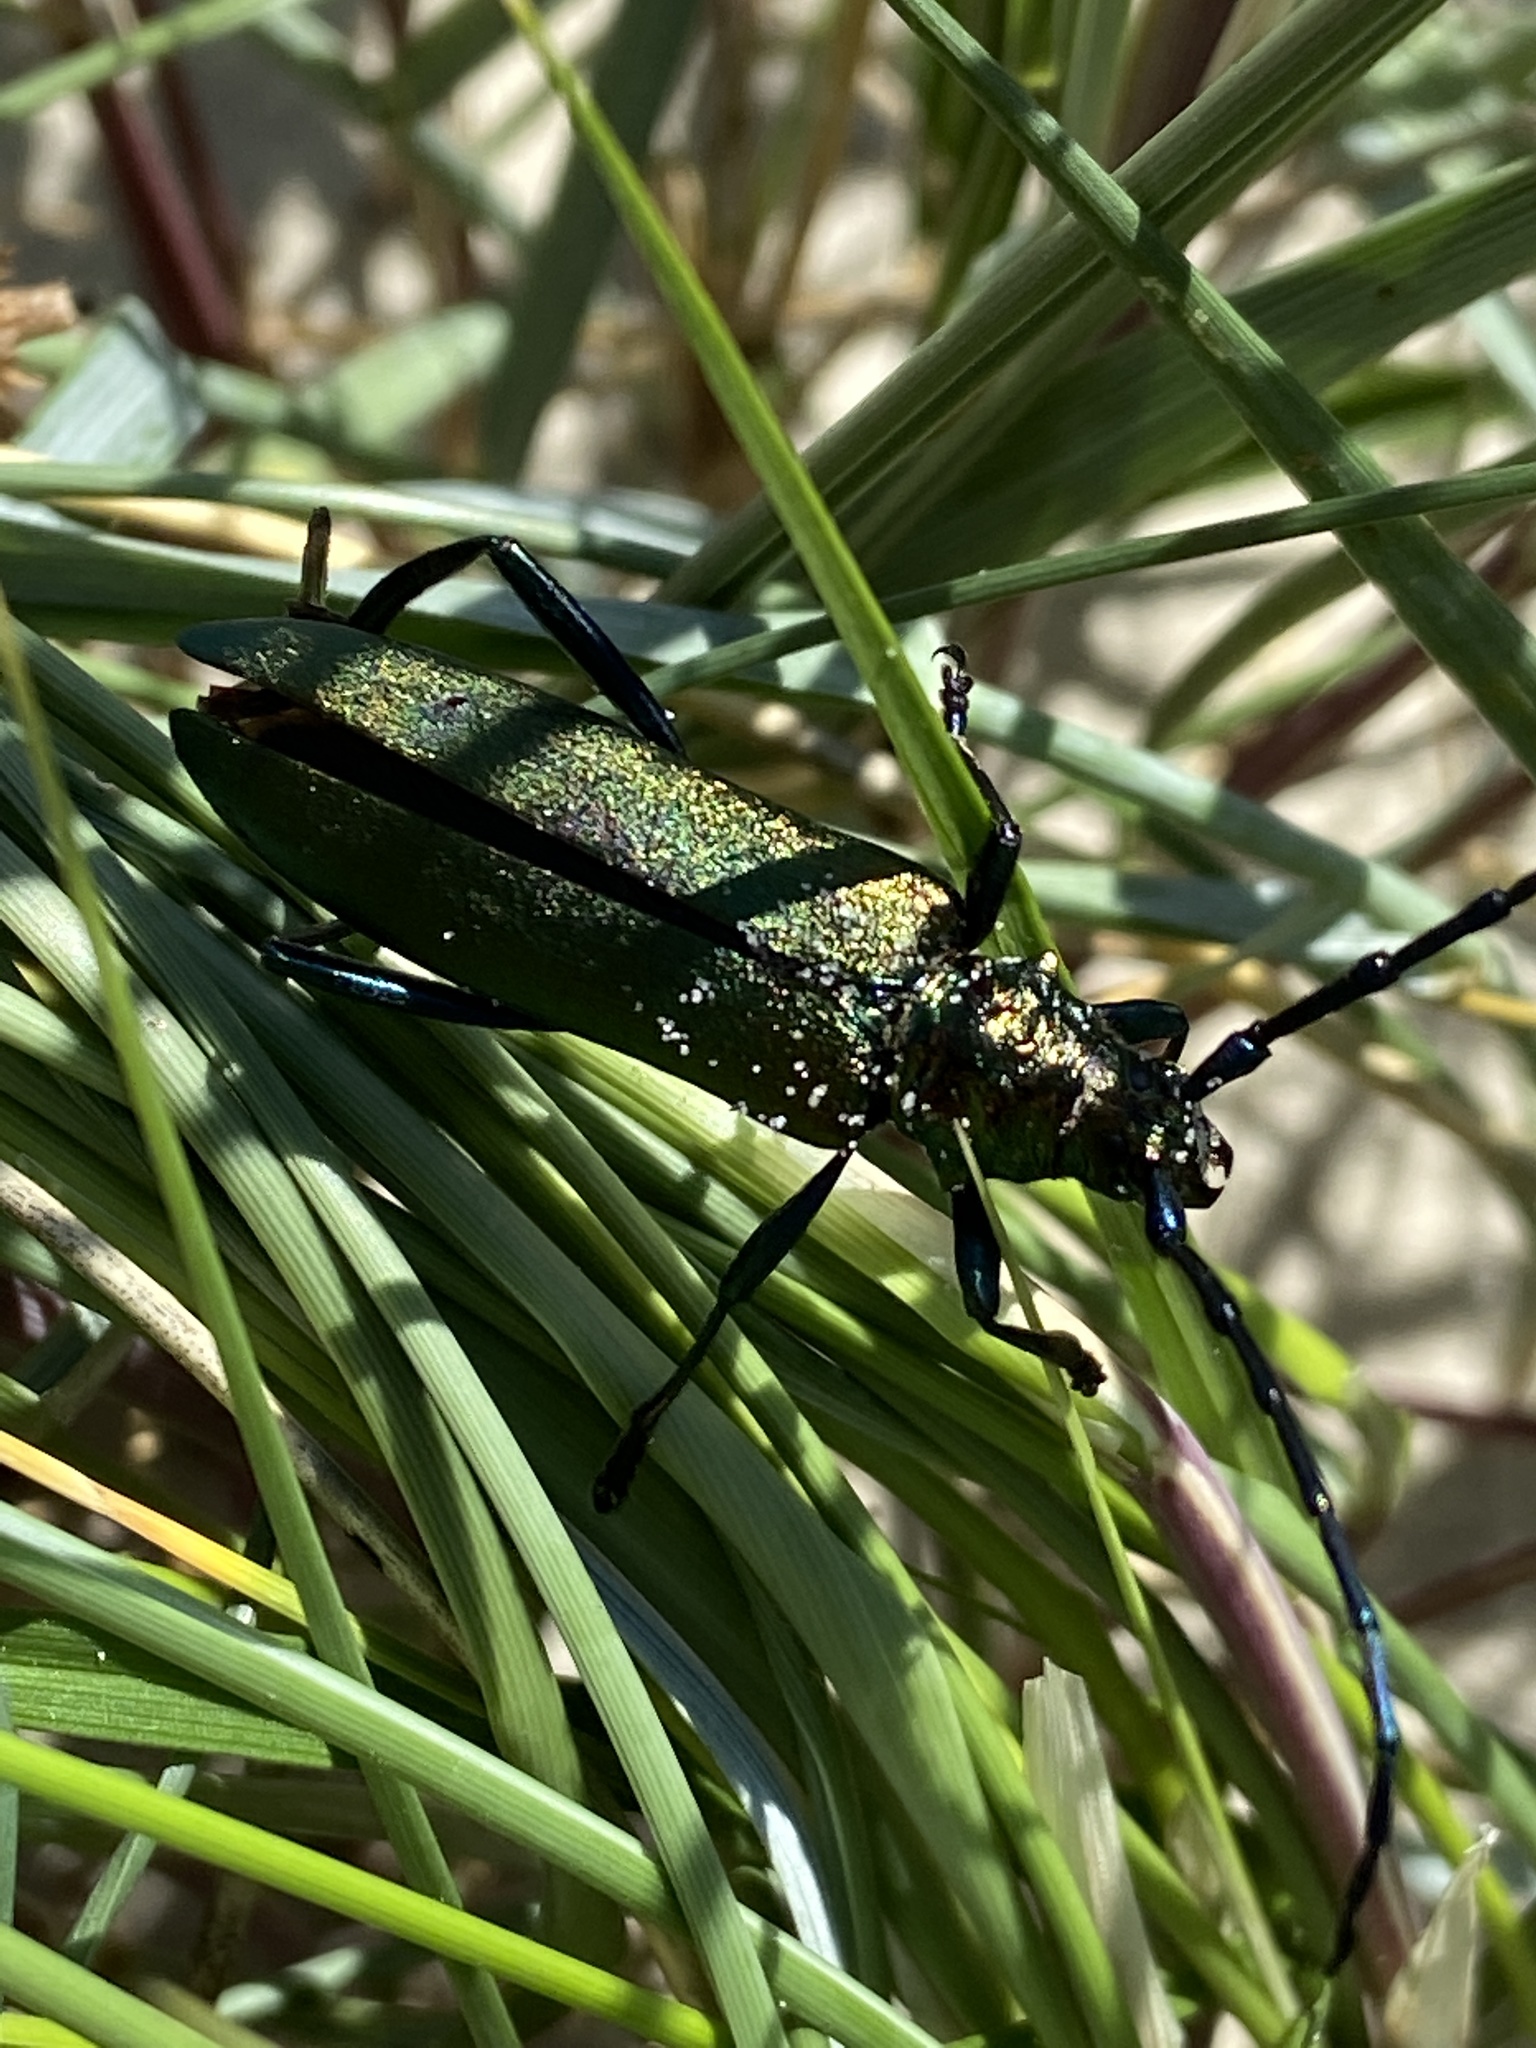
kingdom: Animalia
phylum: Arthropoda
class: Insecta
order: Coleoptera
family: Cerambycidae
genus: Aromia
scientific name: Aromia moschata
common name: Musk beetle
